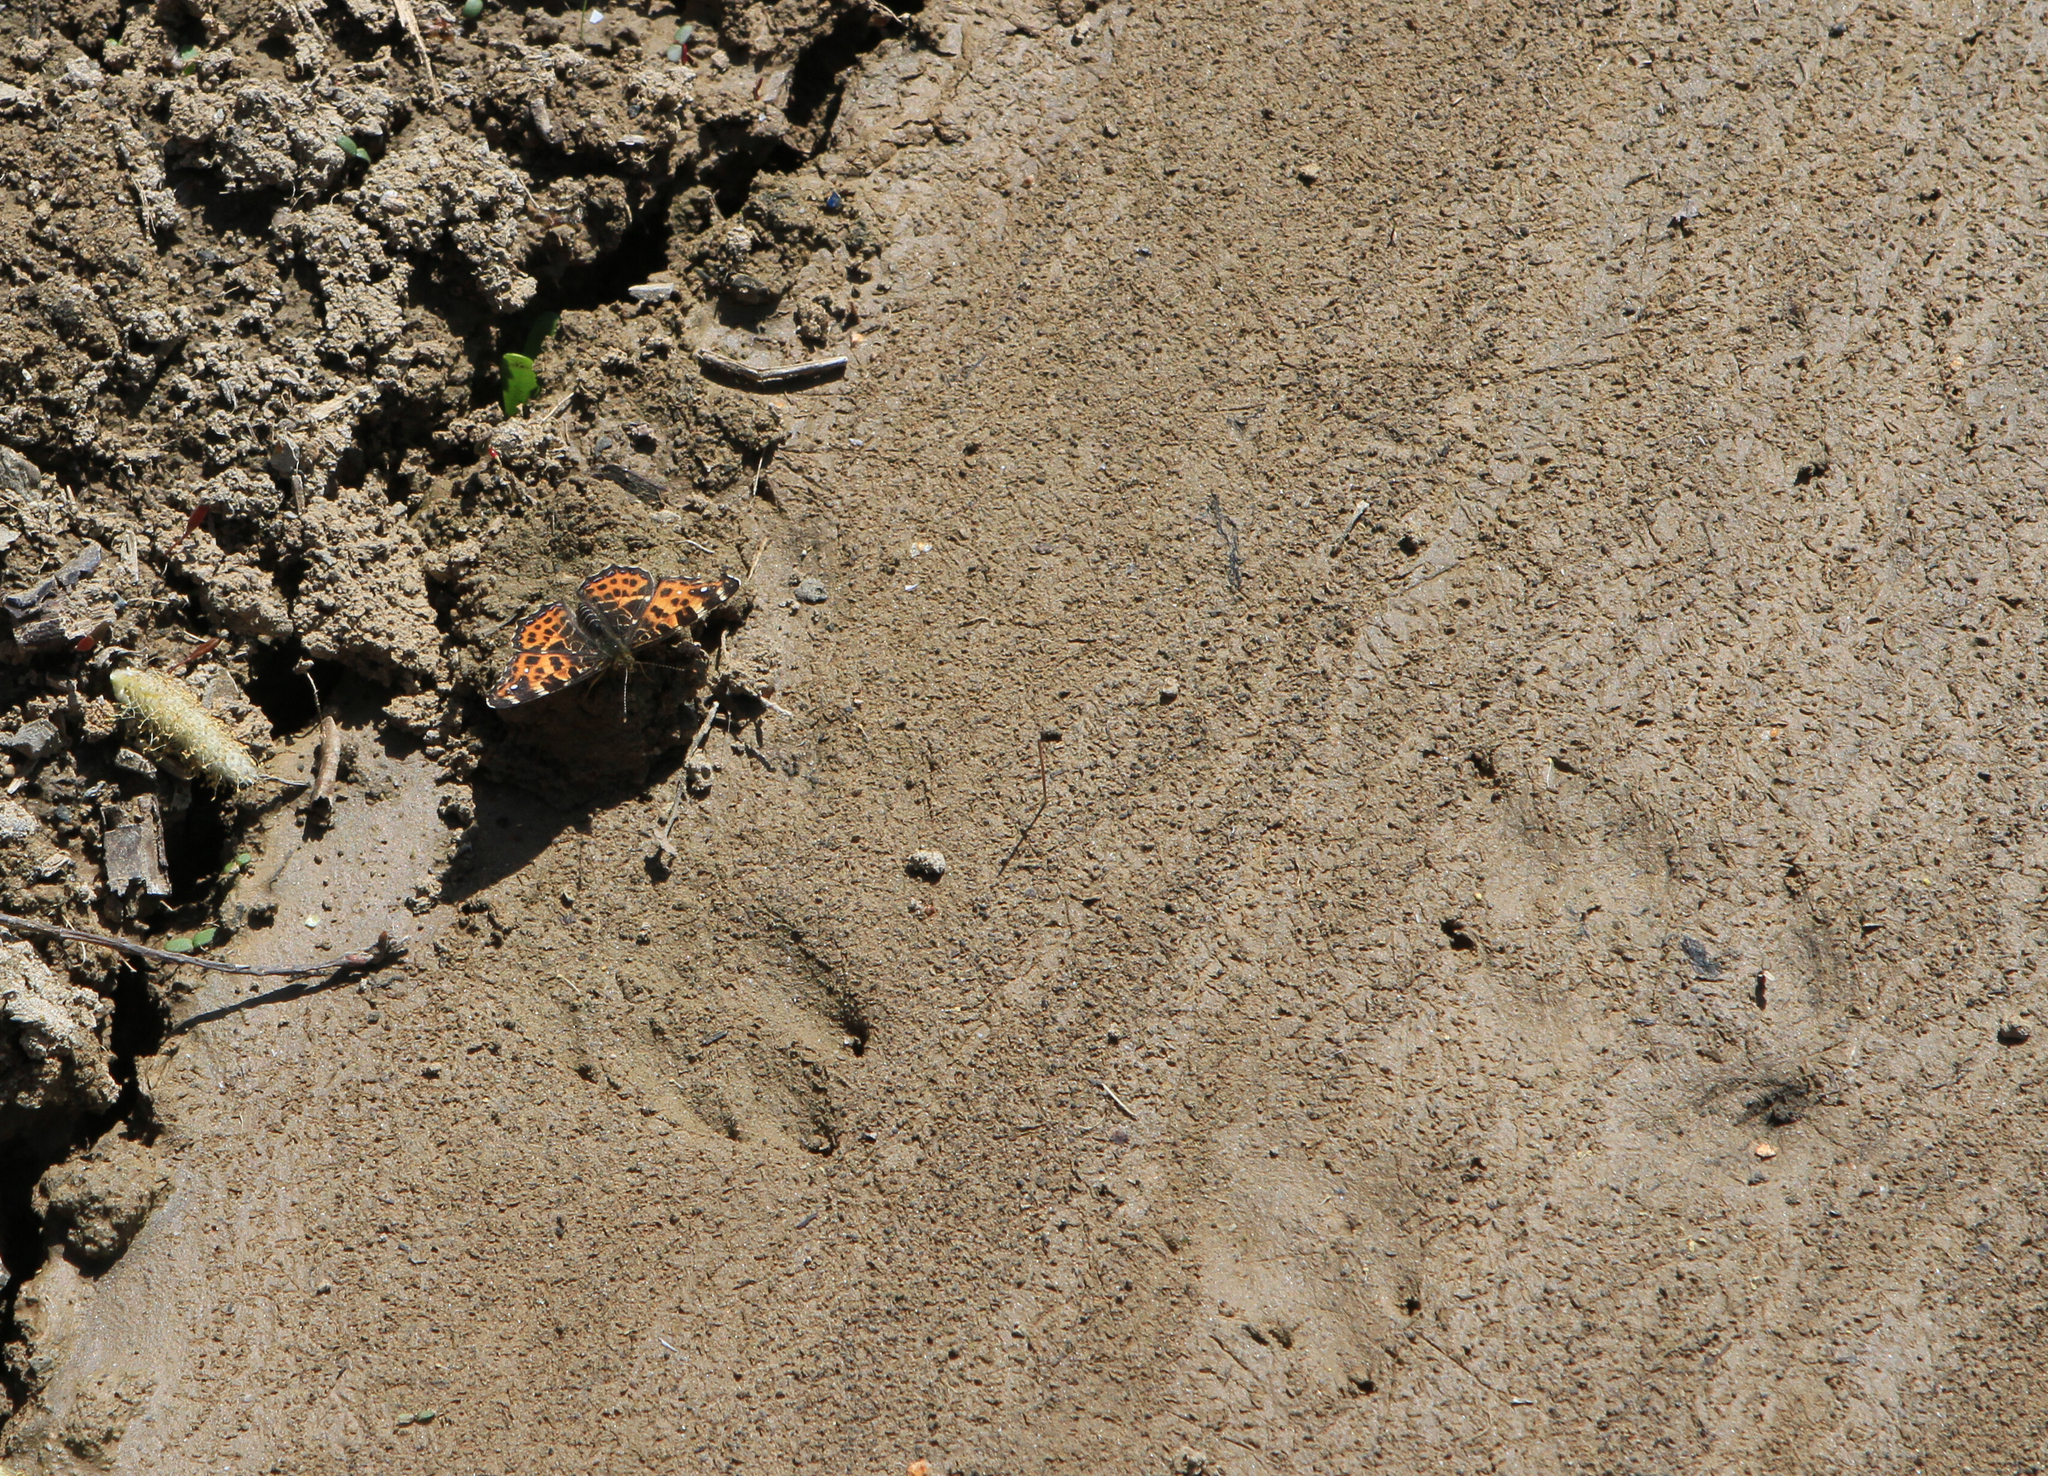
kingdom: Animalia
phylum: Arthropoda
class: Insecta
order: Lepidoptera
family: Nymphalidae
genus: Araschnia
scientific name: Araschnia levana
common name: Map butterfly
